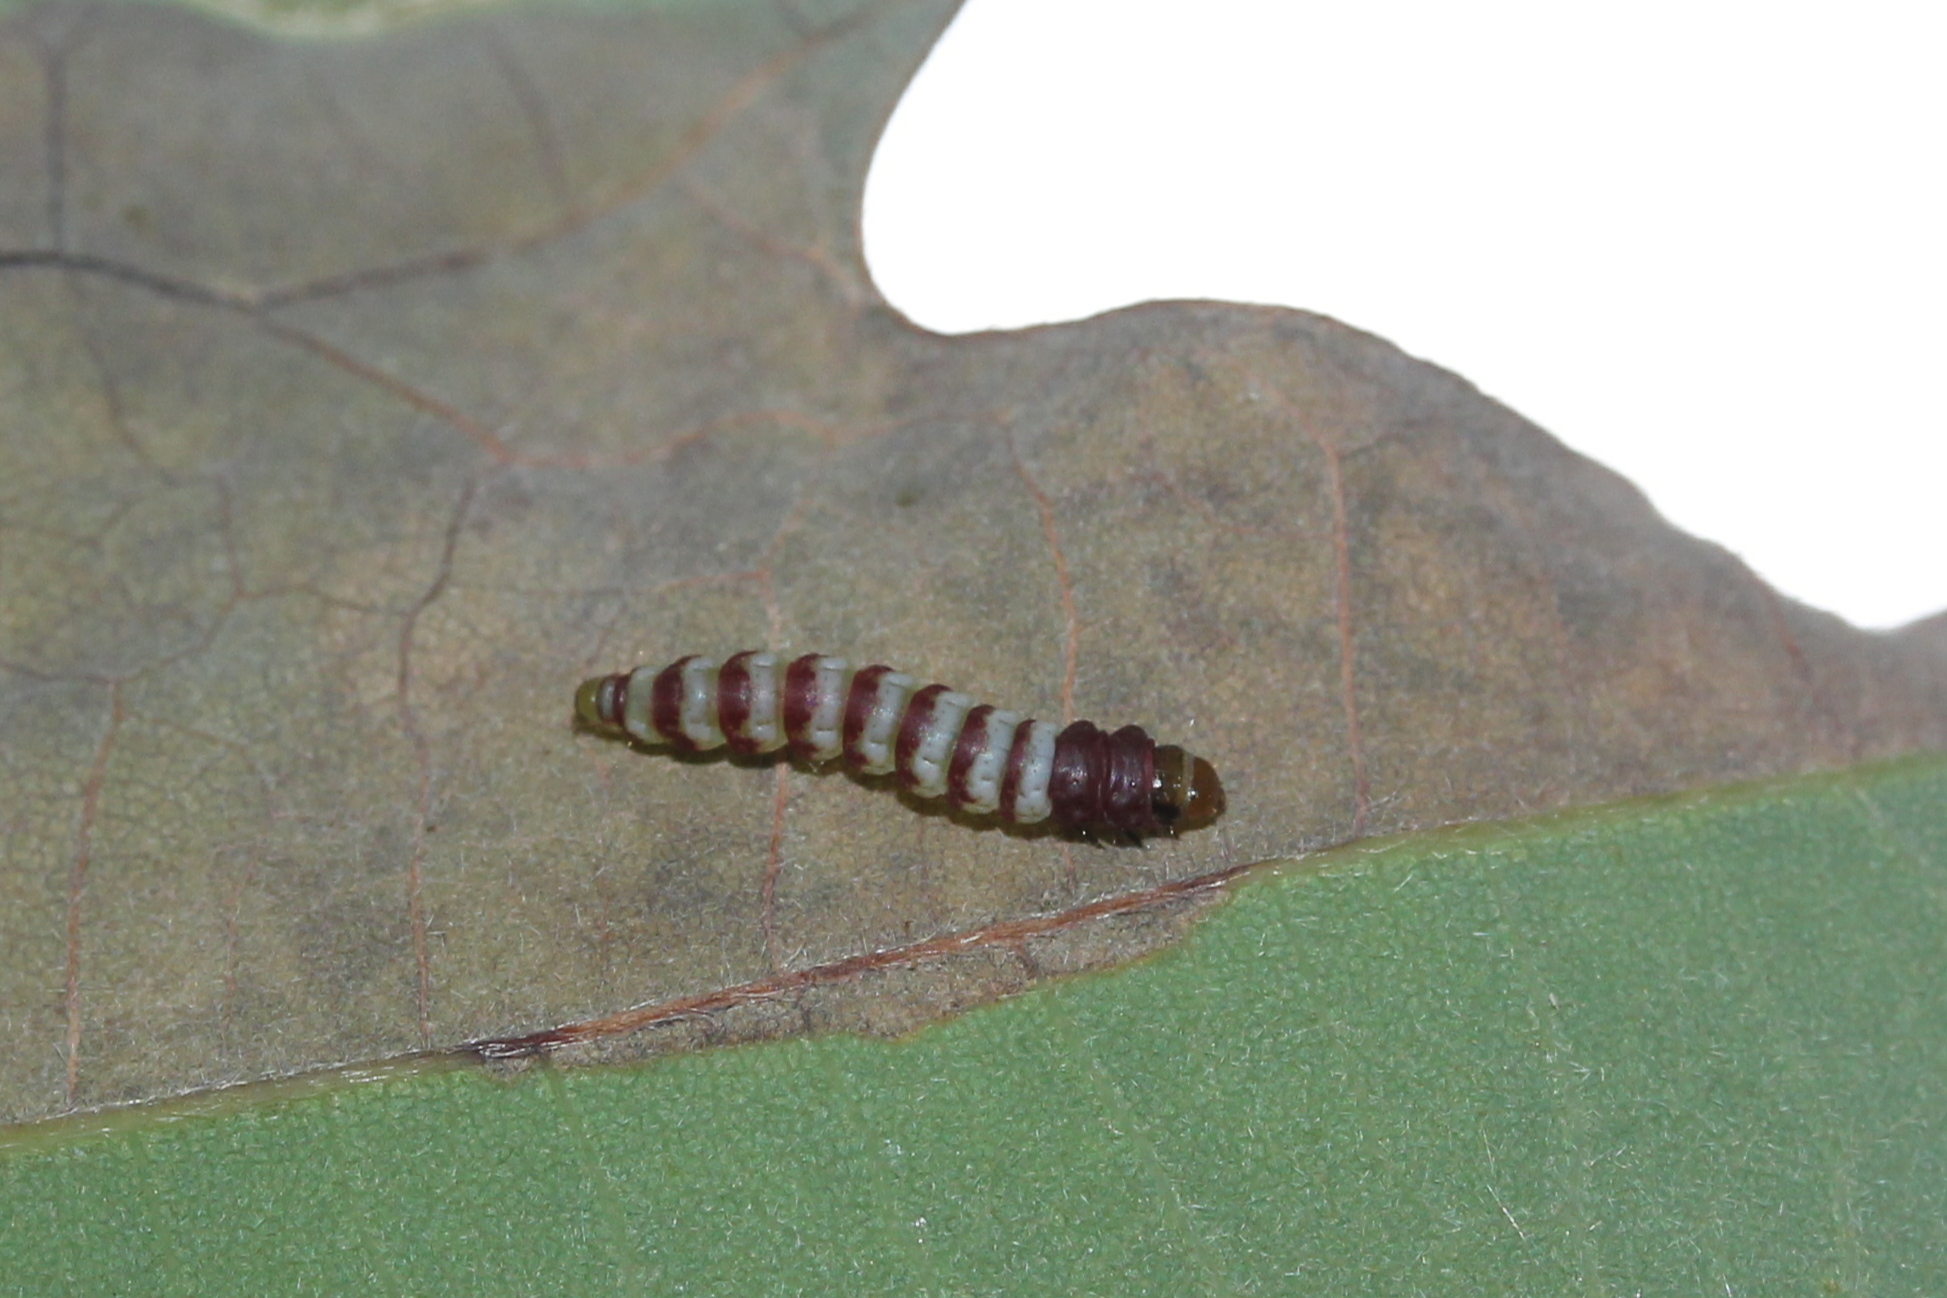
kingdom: Animalia
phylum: Arthropoda
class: Insecta
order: Lepidoptera
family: Gelechiidae
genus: Arogalea
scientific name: Arogalea cristifasciella
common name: White stripe-backed moth
